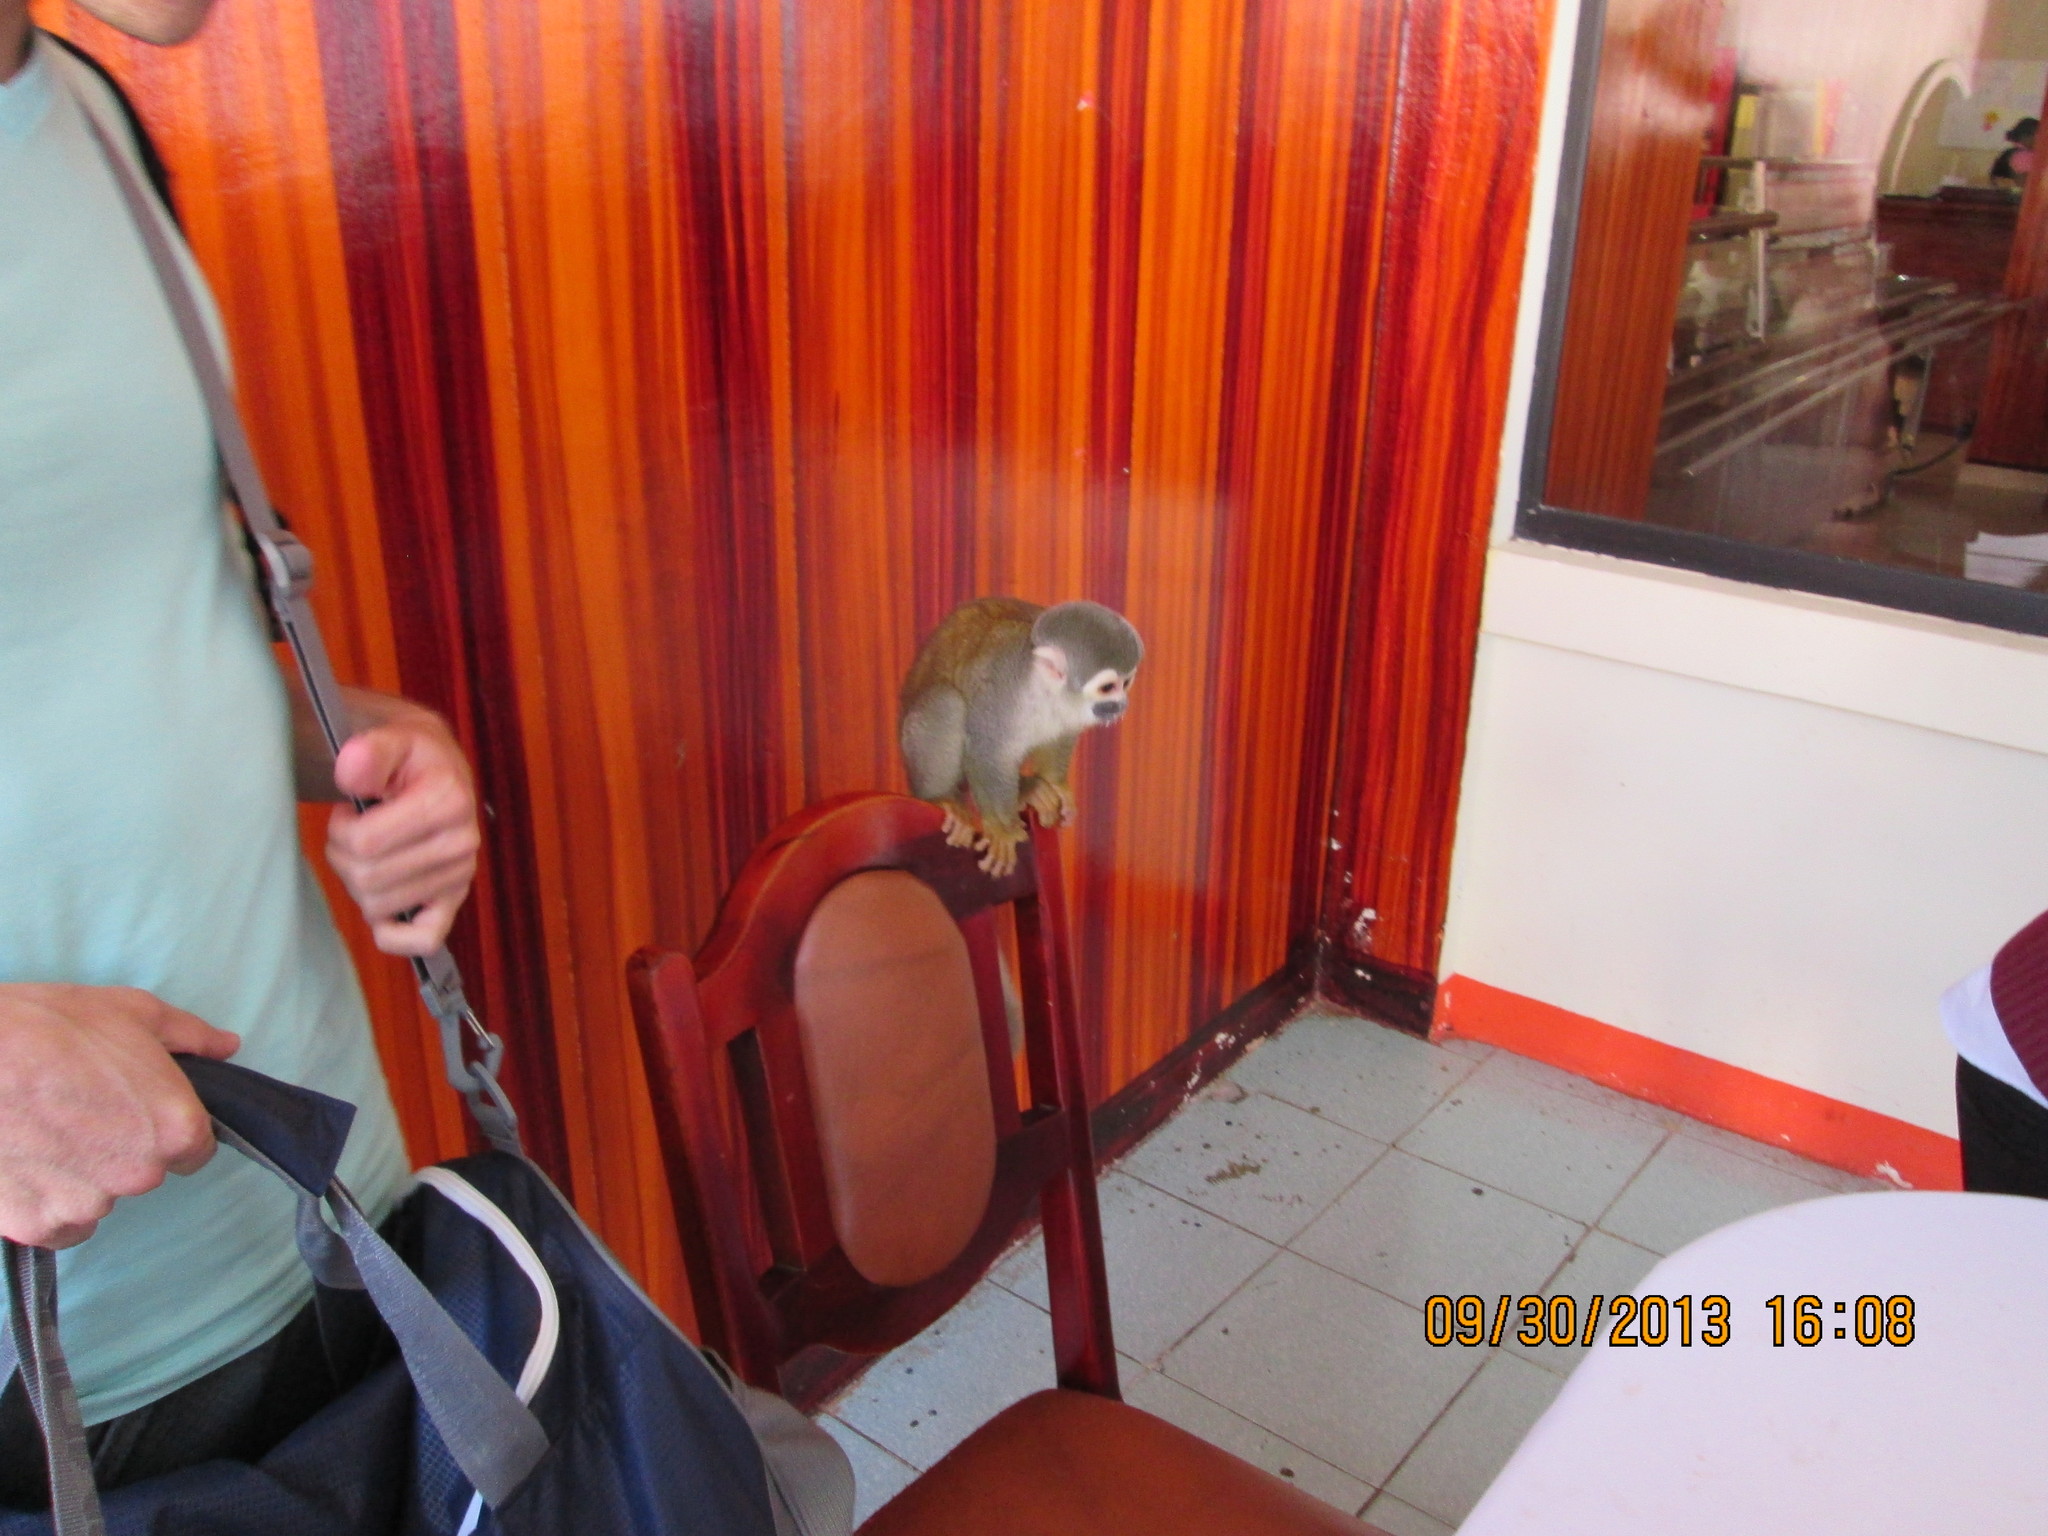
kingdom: Animalia
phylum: Chordata
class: Mammalia
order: Primates
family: Cebidae
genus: Saimiri
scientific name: Saimiri cassiquiarensis
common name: Humboldt’s squirrel monkey
